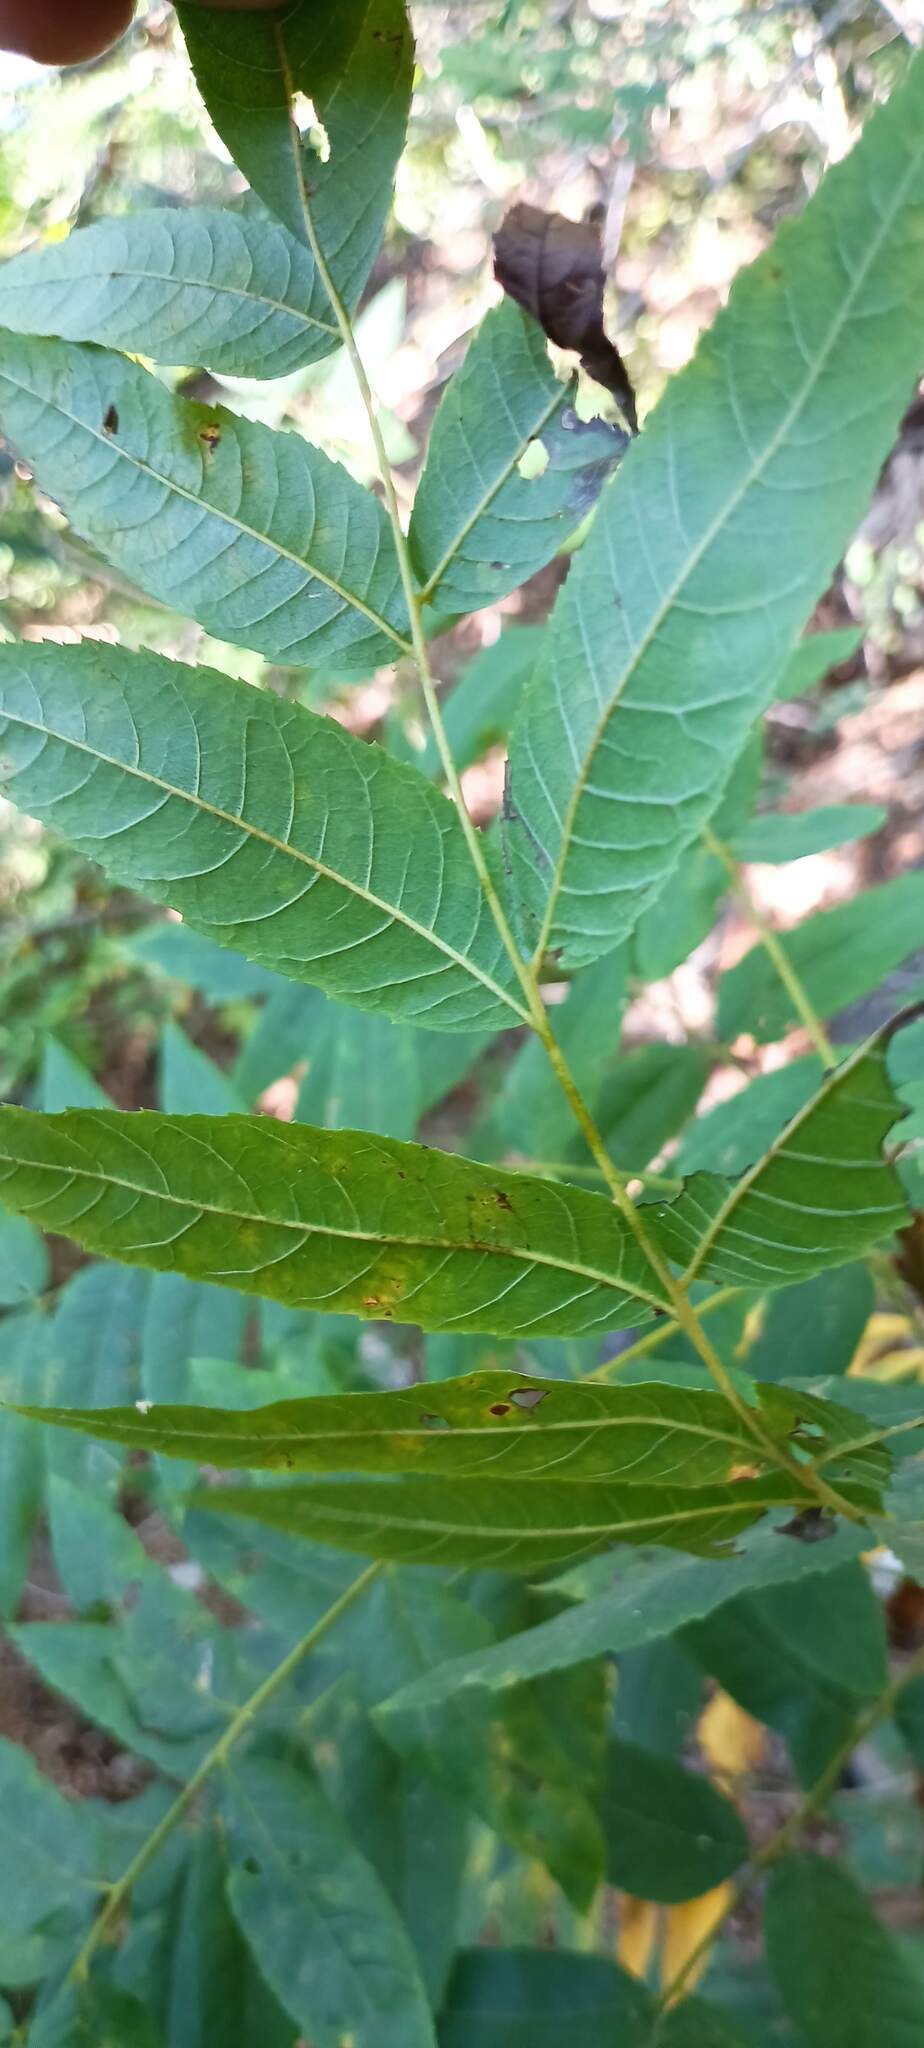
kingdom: Plantae
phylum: Tracheophyta
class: Magnoliopsida
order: Fagales
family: Juglandaceae
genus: Juglans
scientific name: Juglans californica
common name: Southern california black walnut
